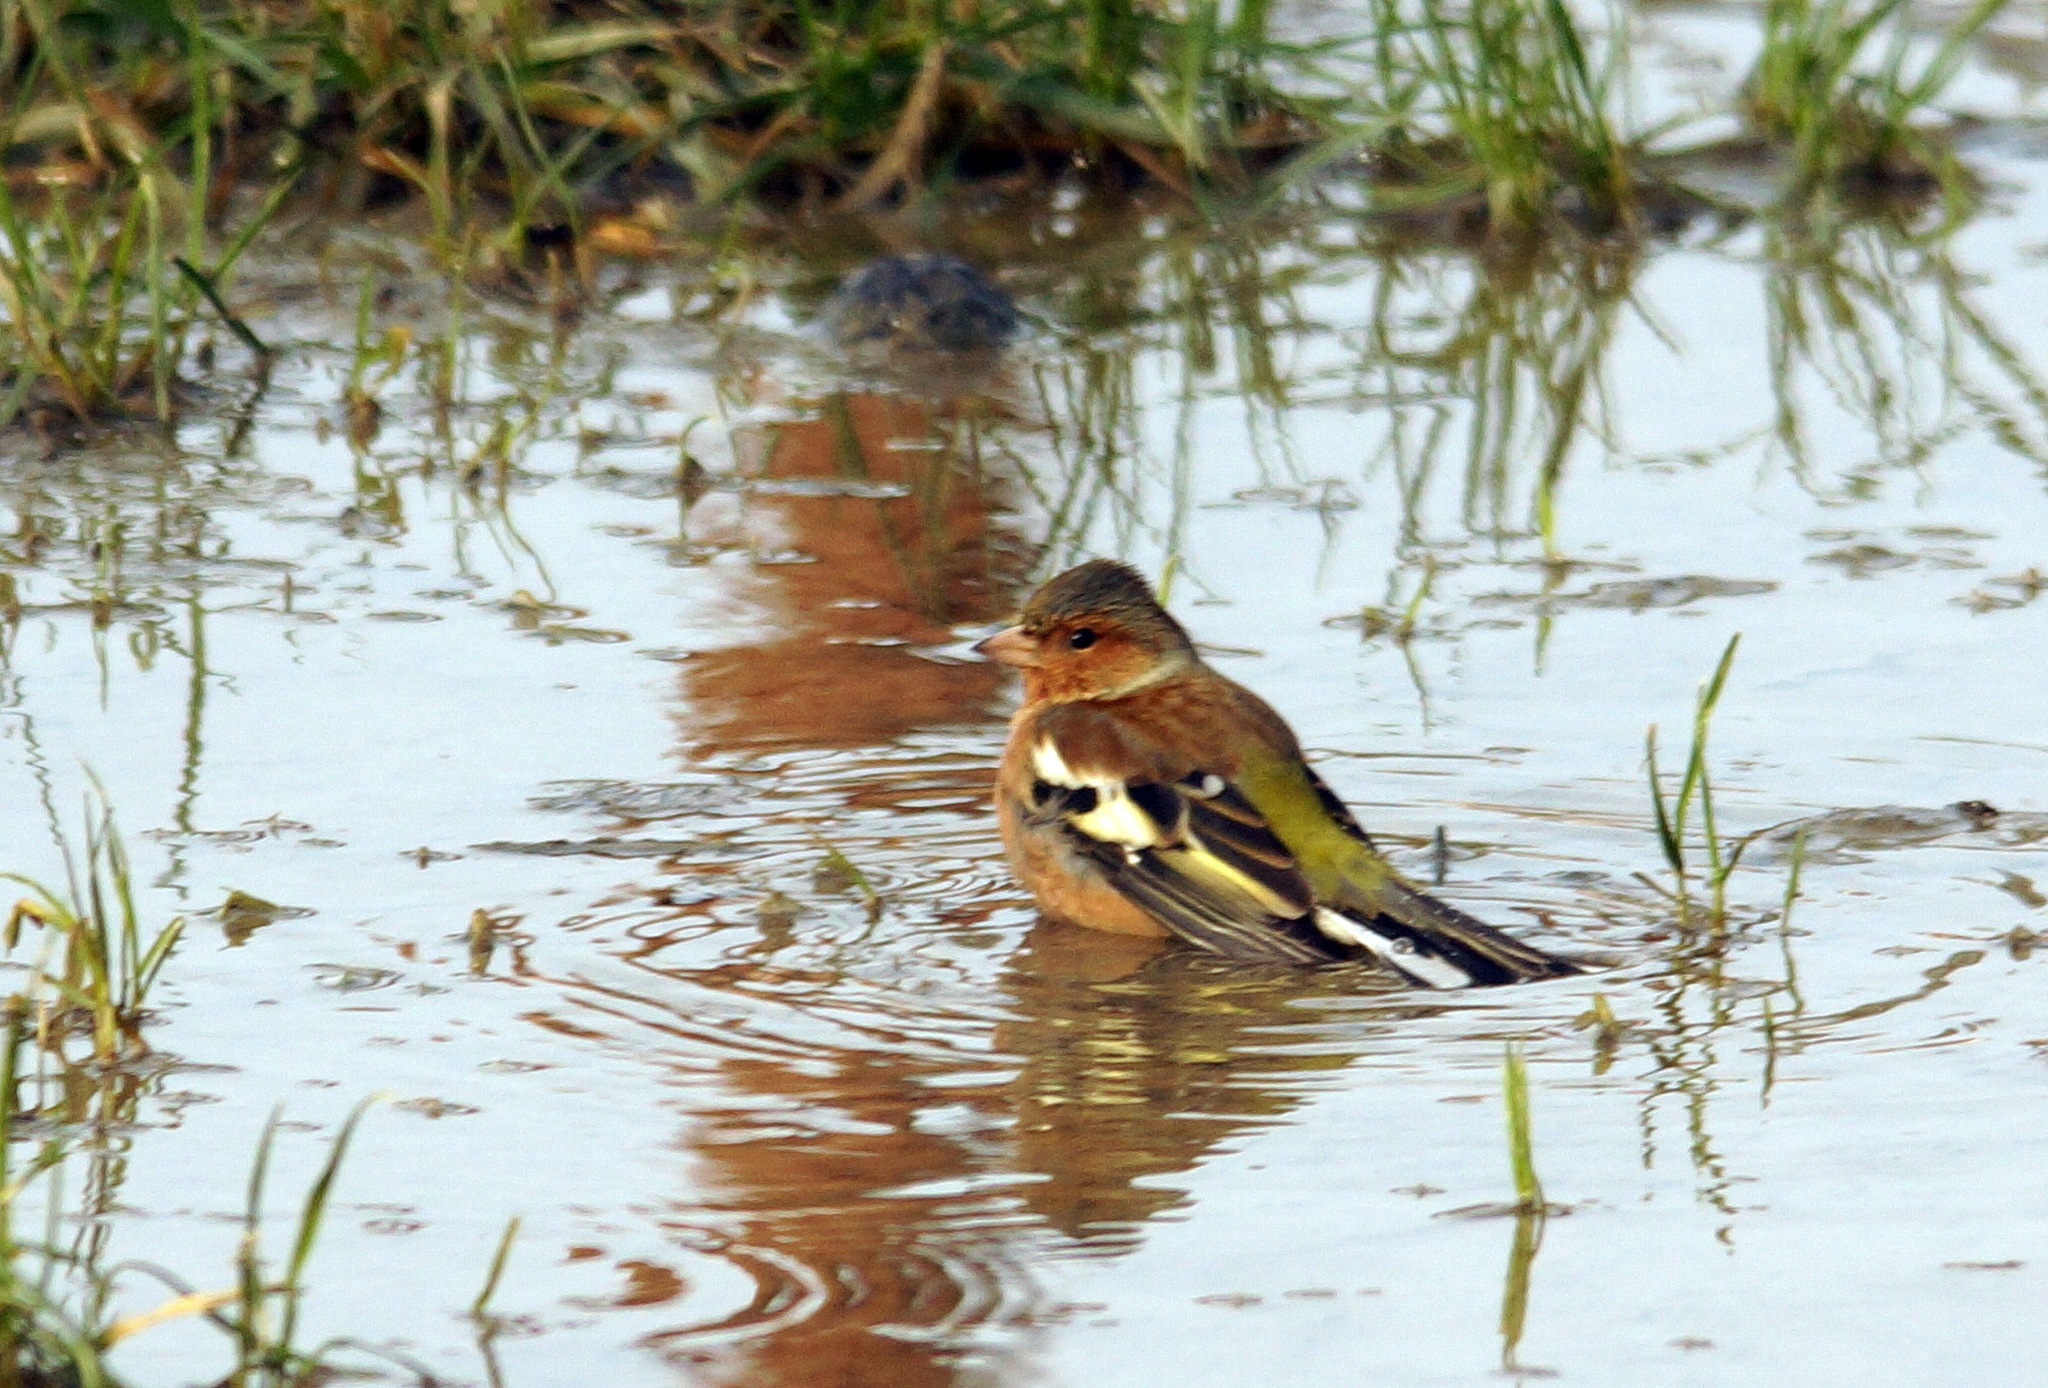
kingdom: Animalia
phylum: Chordata
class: Aves
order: Passeriformes
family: Fringillidae
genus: Fringilla
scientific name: Fringilla coelebs
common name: Common chaffinch
